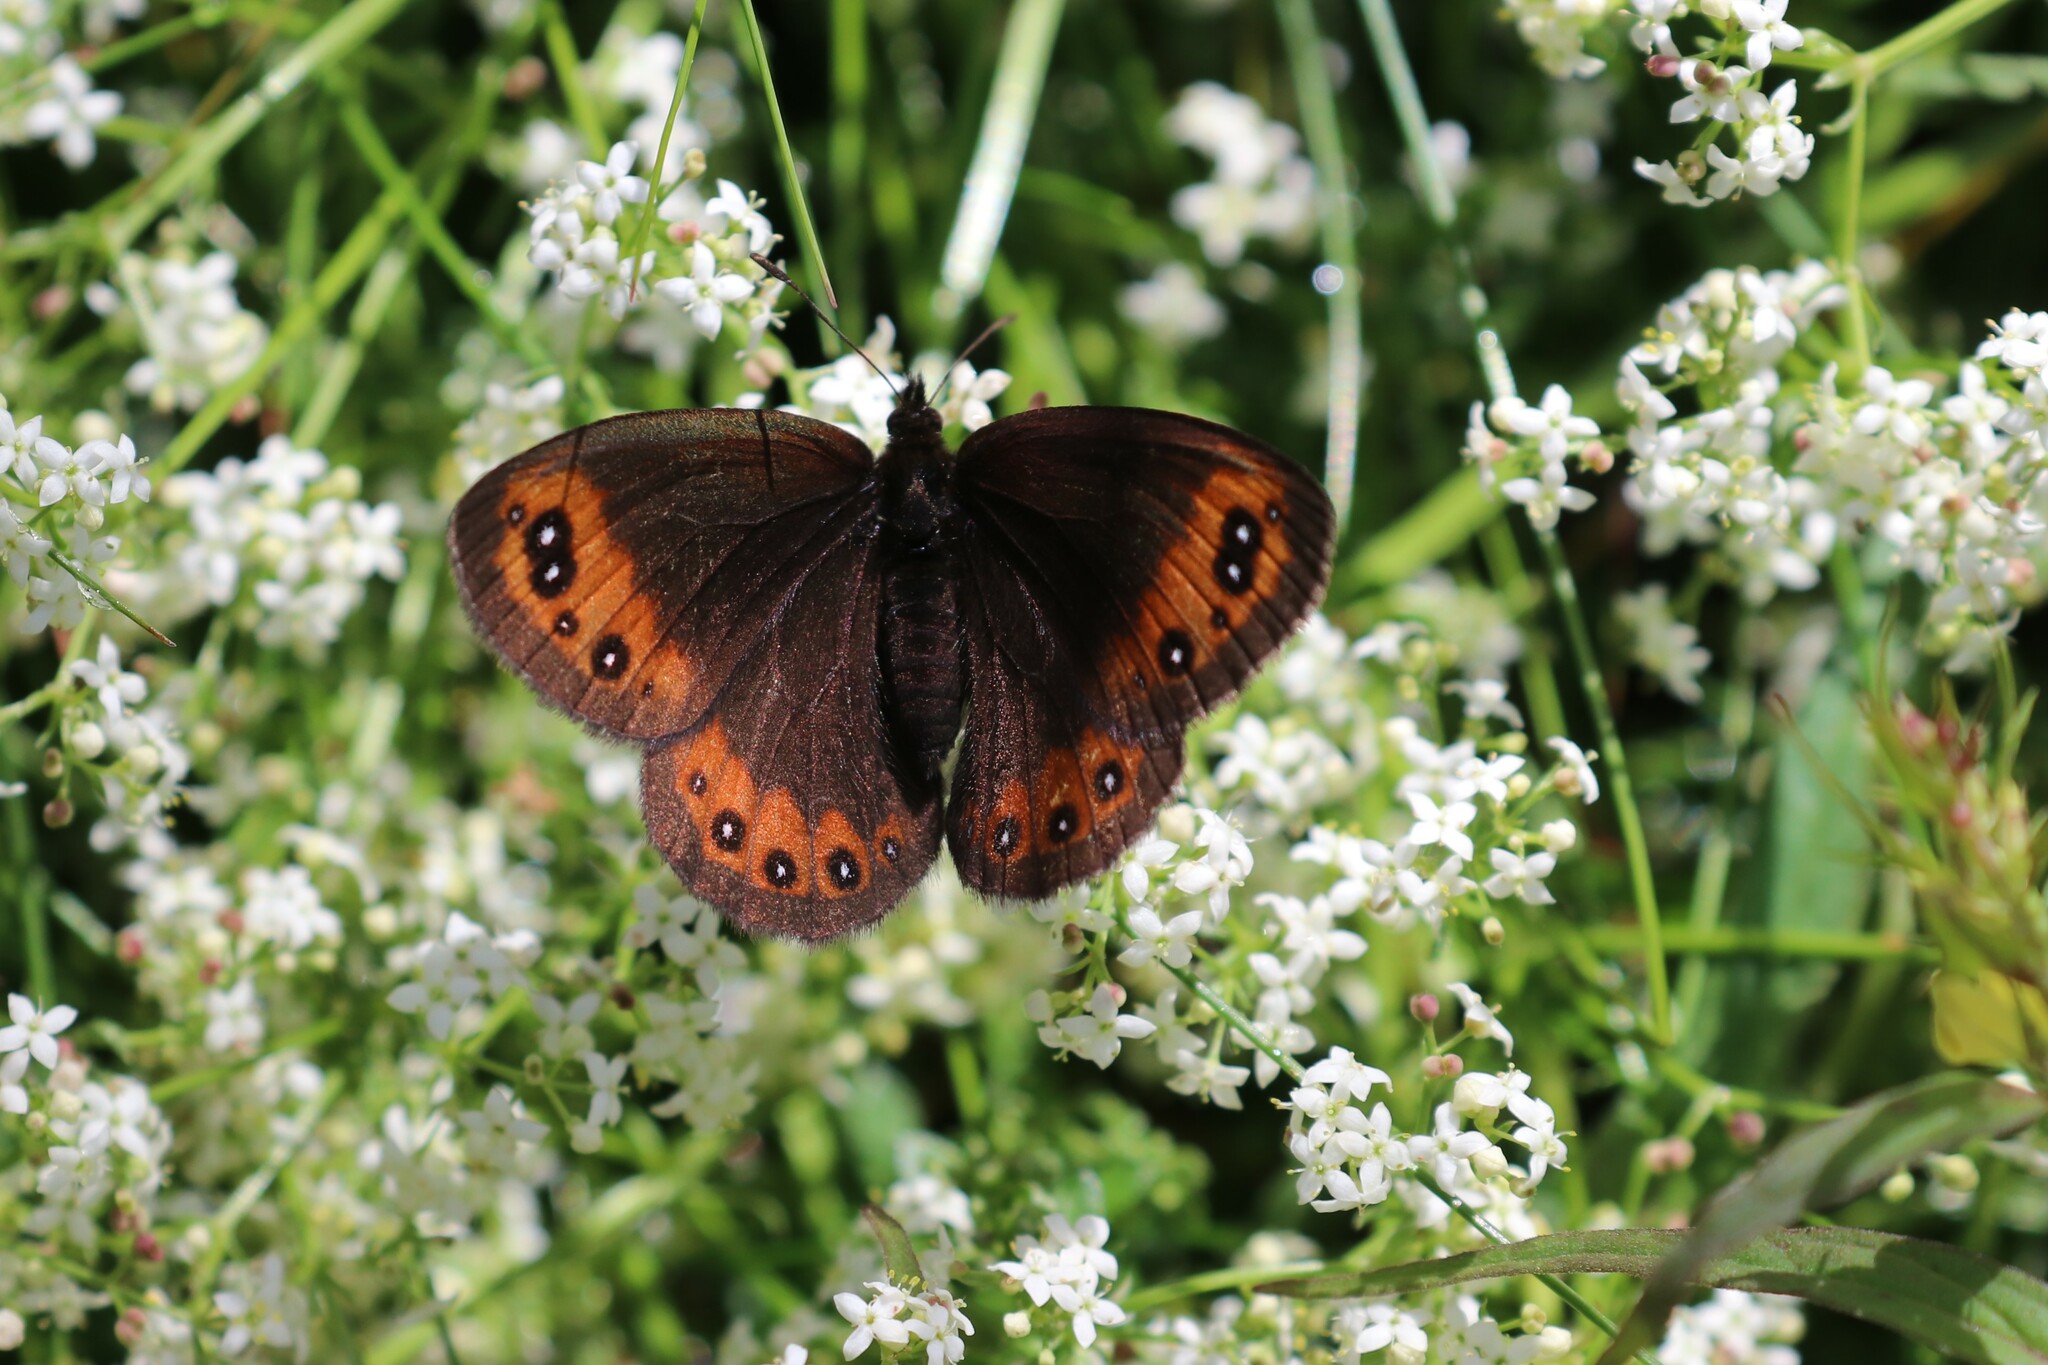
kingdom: Animalia
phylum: Arthropoda
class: Insecta
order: Lepidoptera
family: Nymphalidae
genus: Erebia
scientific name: Erebia meolans
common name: Piedmont ringlet
